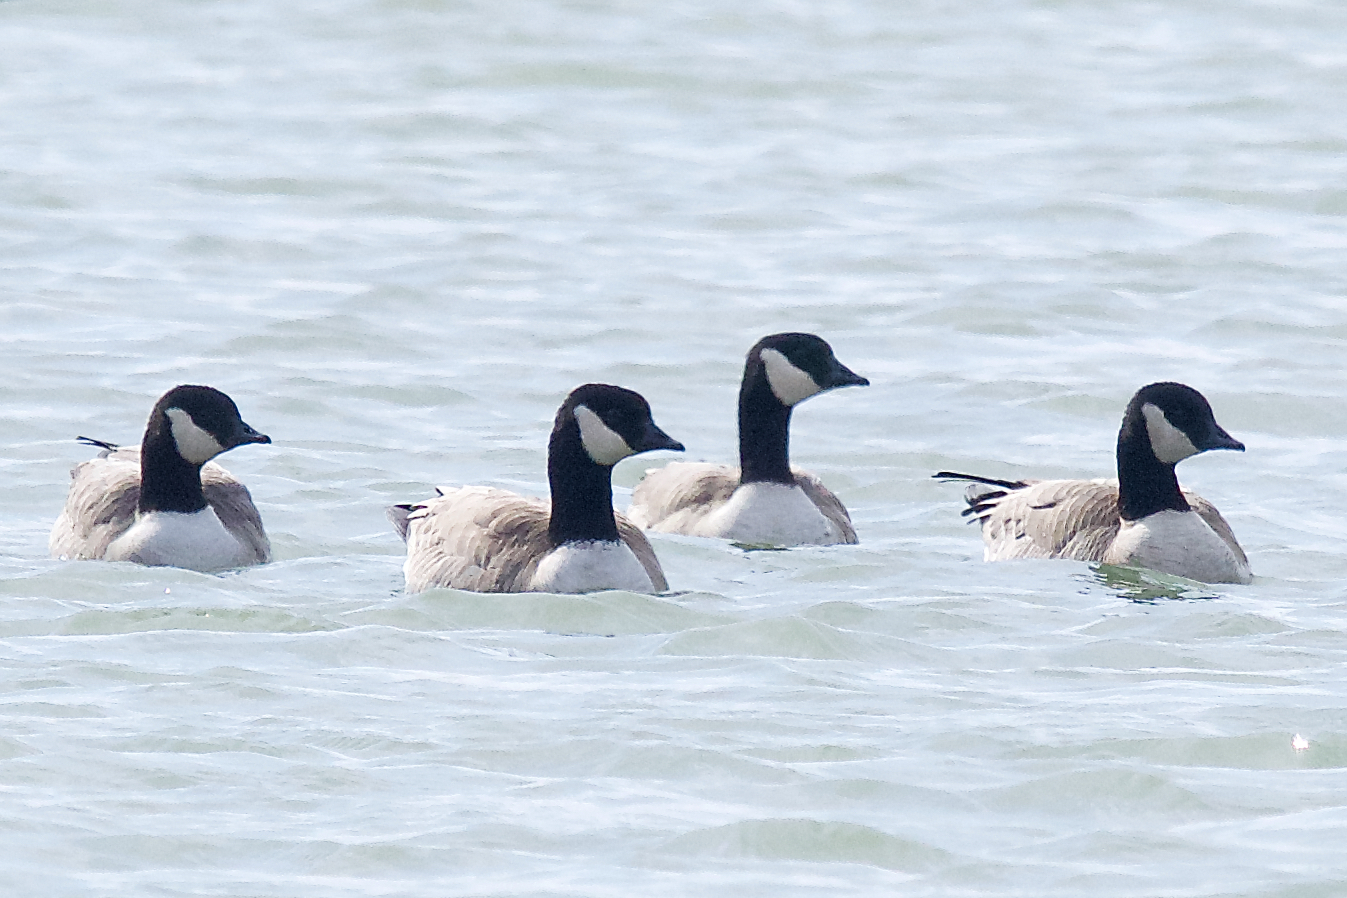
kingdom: Animalia
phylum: Chordata
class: Aves
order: Anseriformes
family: Anatidae
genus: Branta
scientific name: Branta hutchinsii
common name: Cackling goose
